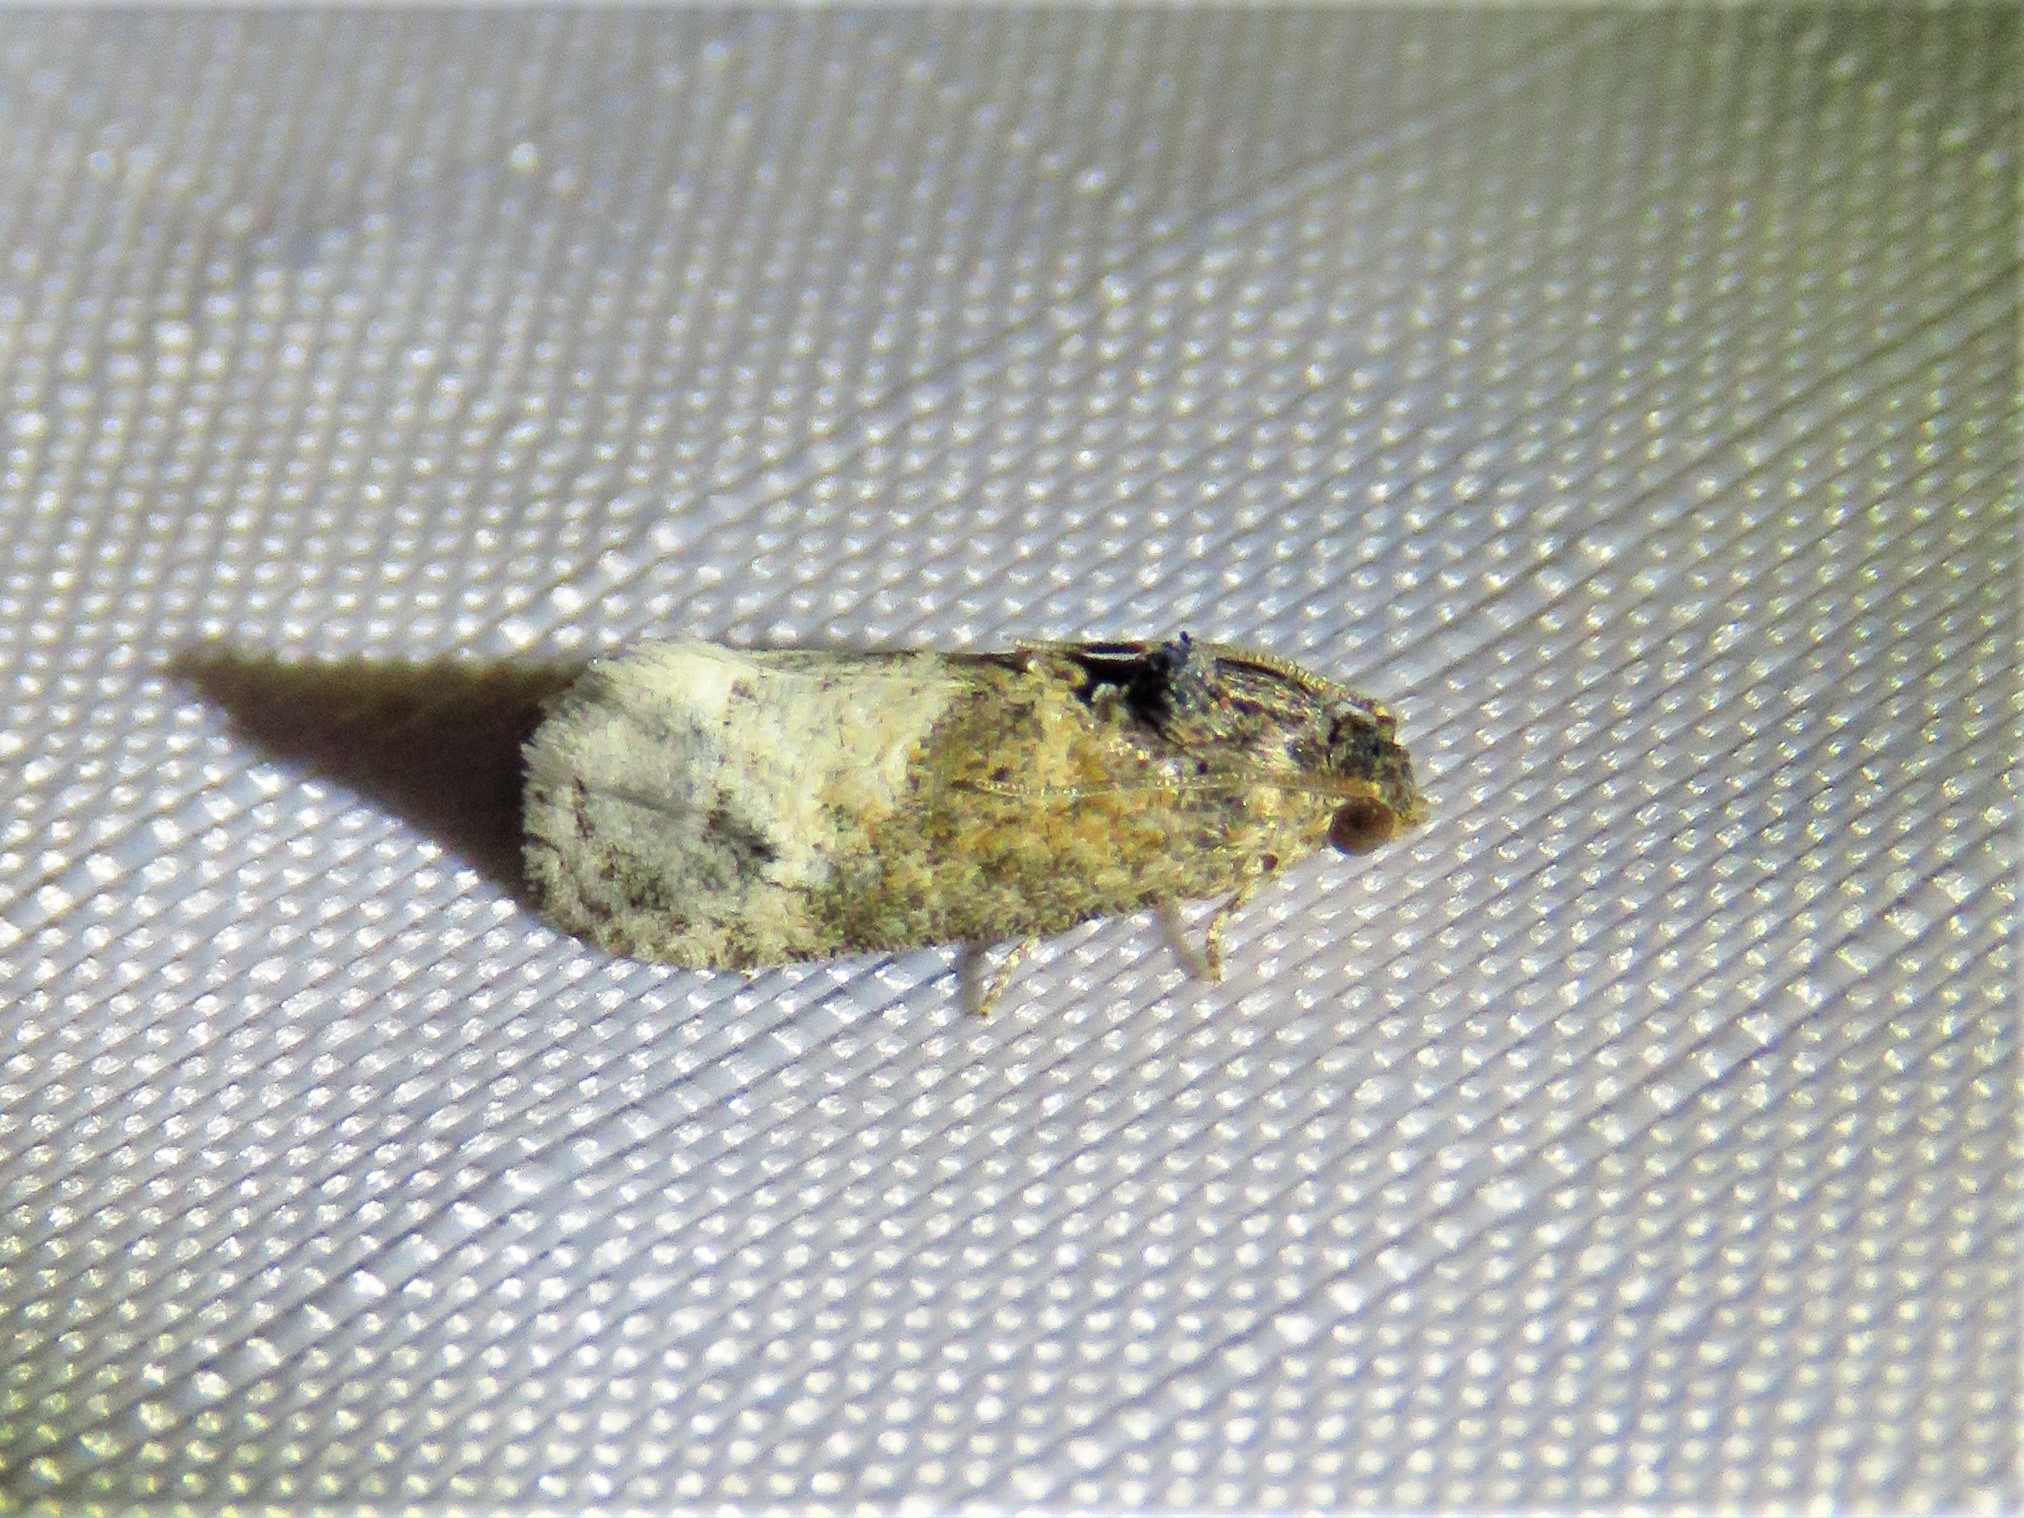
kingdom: Animalia
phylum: Arthropoda
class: Insecta
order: Lepidoptera
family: Tortricidae
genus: Ecdytolopha
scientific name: Ecdytolopha mana
